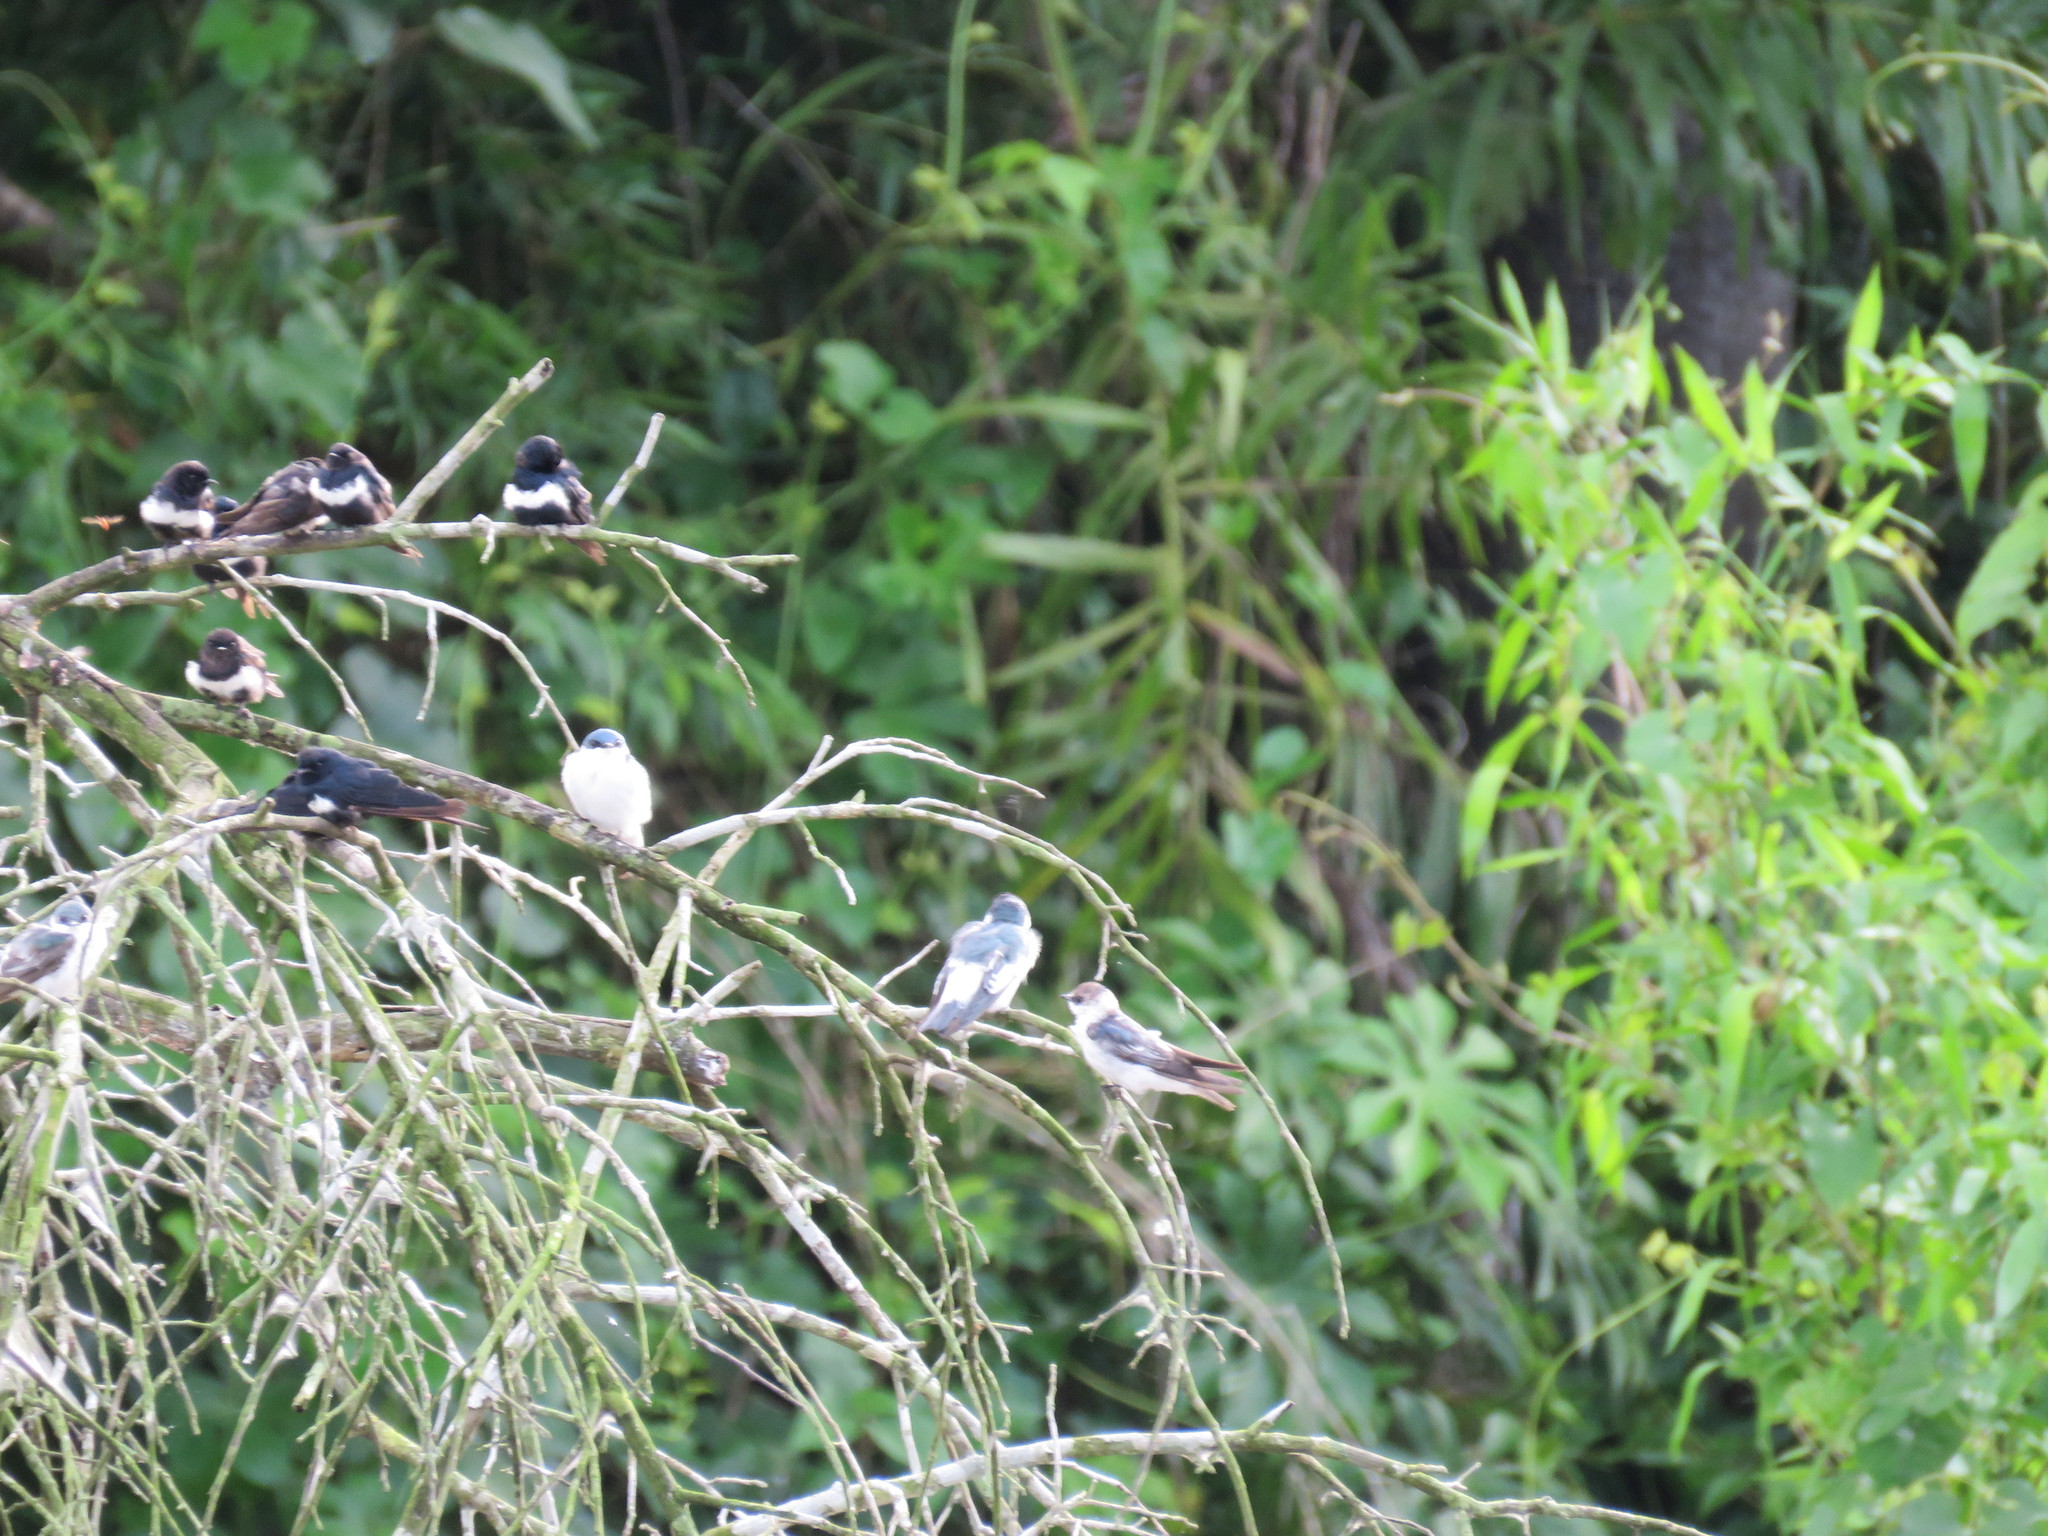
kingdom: Animalia
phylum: Chordata
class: Aves
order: Passeriformes
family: Hirundinidae
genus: Atticora
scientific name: Atticora fasciata
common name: White-banded swallow
